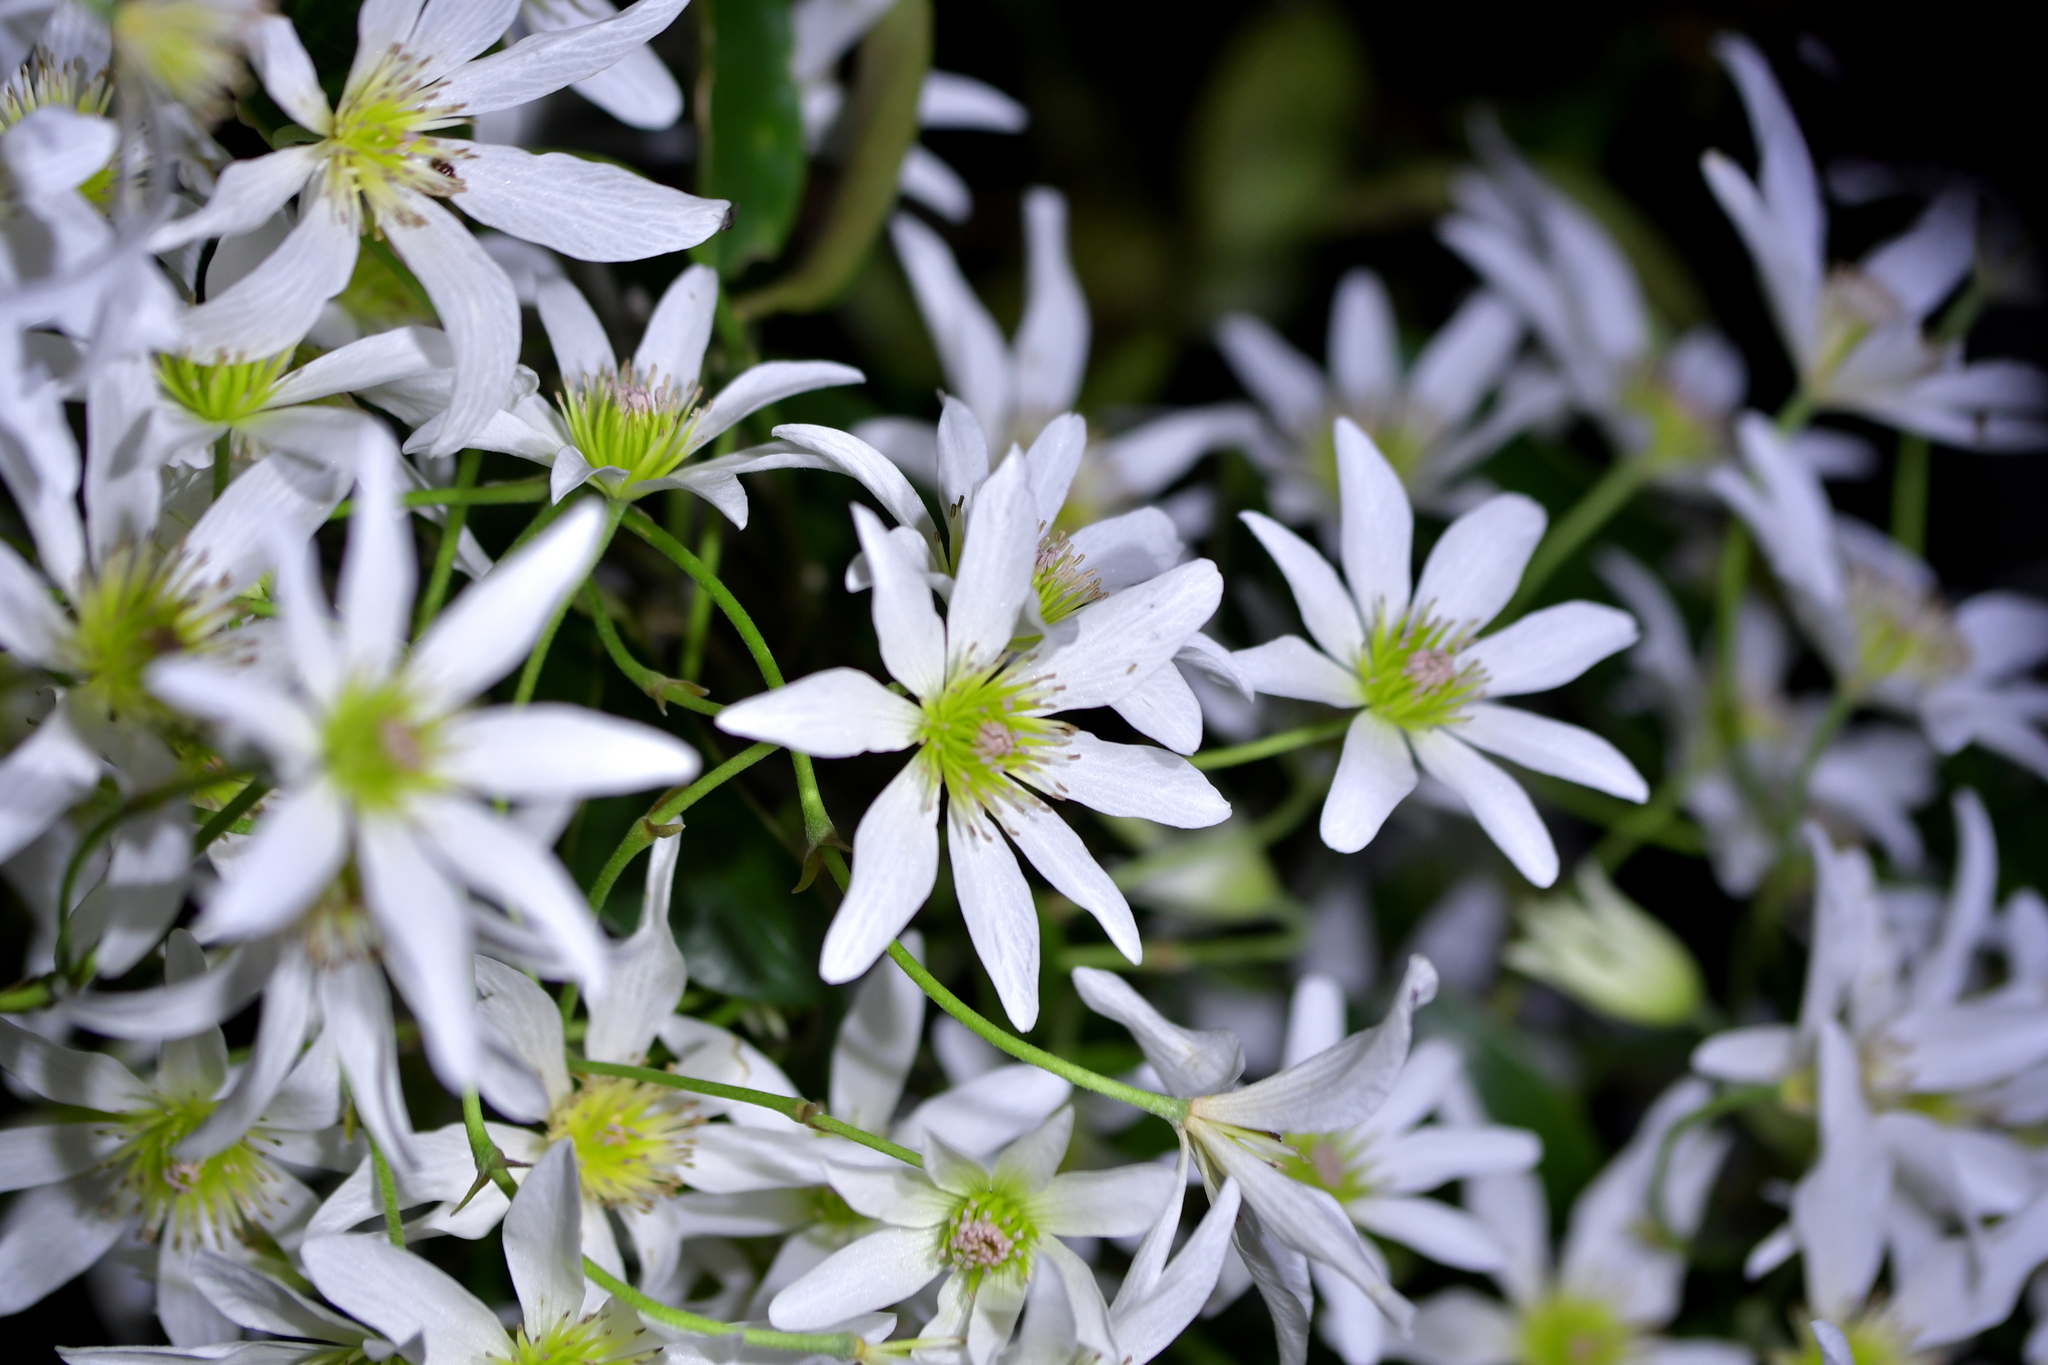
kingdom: Plantae
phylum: Tracheophyta
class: Magnoliopsida
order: Ranunculales
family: Ranunculaceae
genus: Clematis
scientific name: Clematis paniculata
